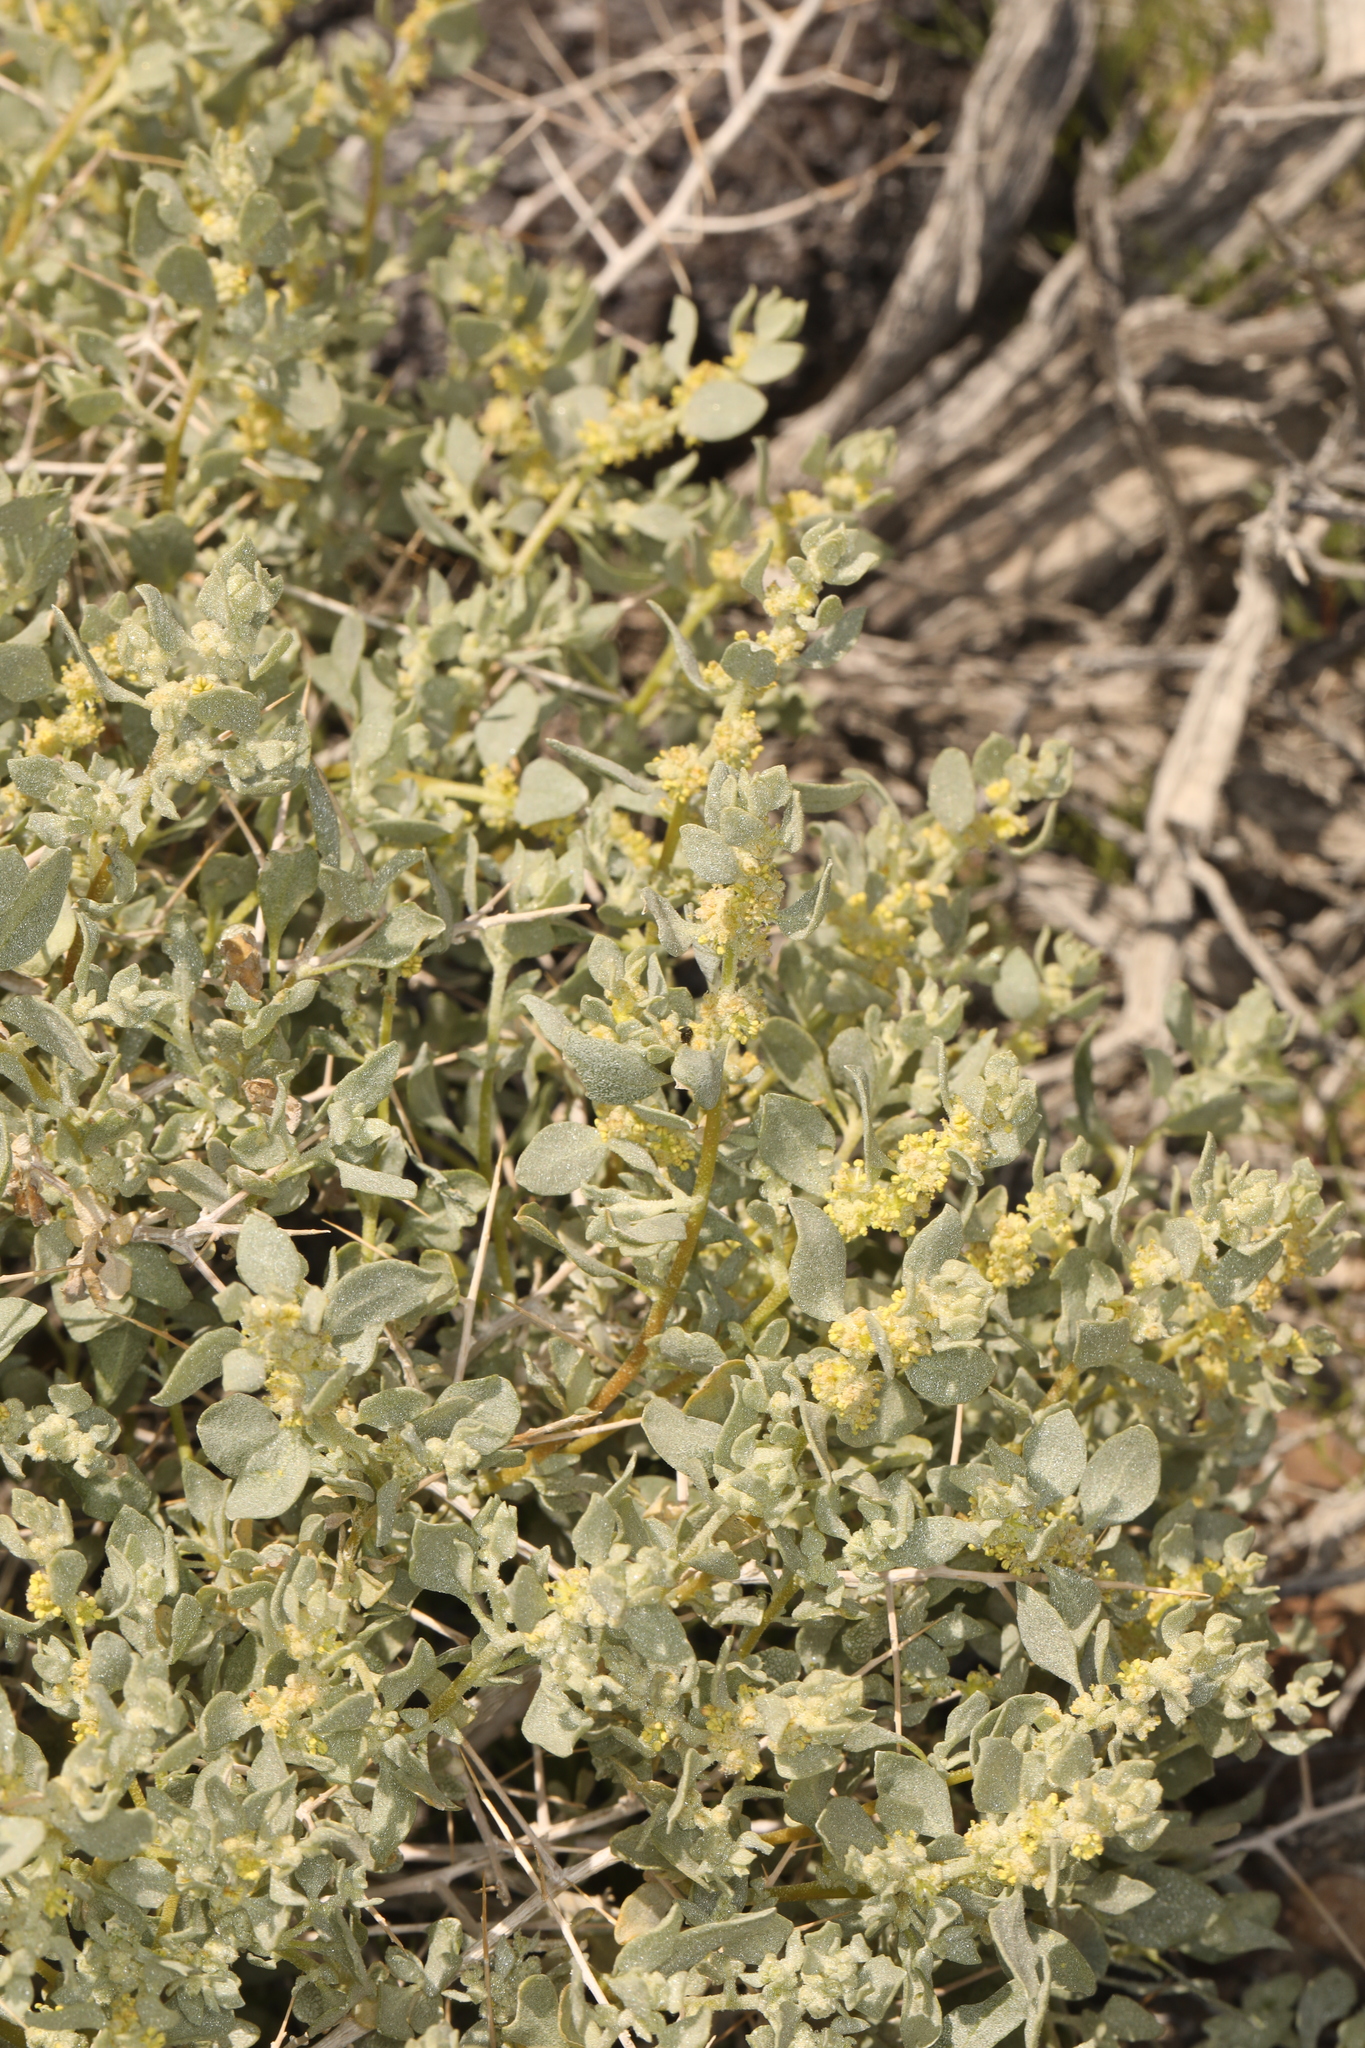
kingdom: Plantae
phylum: Tracheophyta
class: Magnoliopsida
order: Caryophyllales
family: Amaranthaceae
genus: Atriplex
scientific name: Atriplex confertifolia
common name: Shadscale
